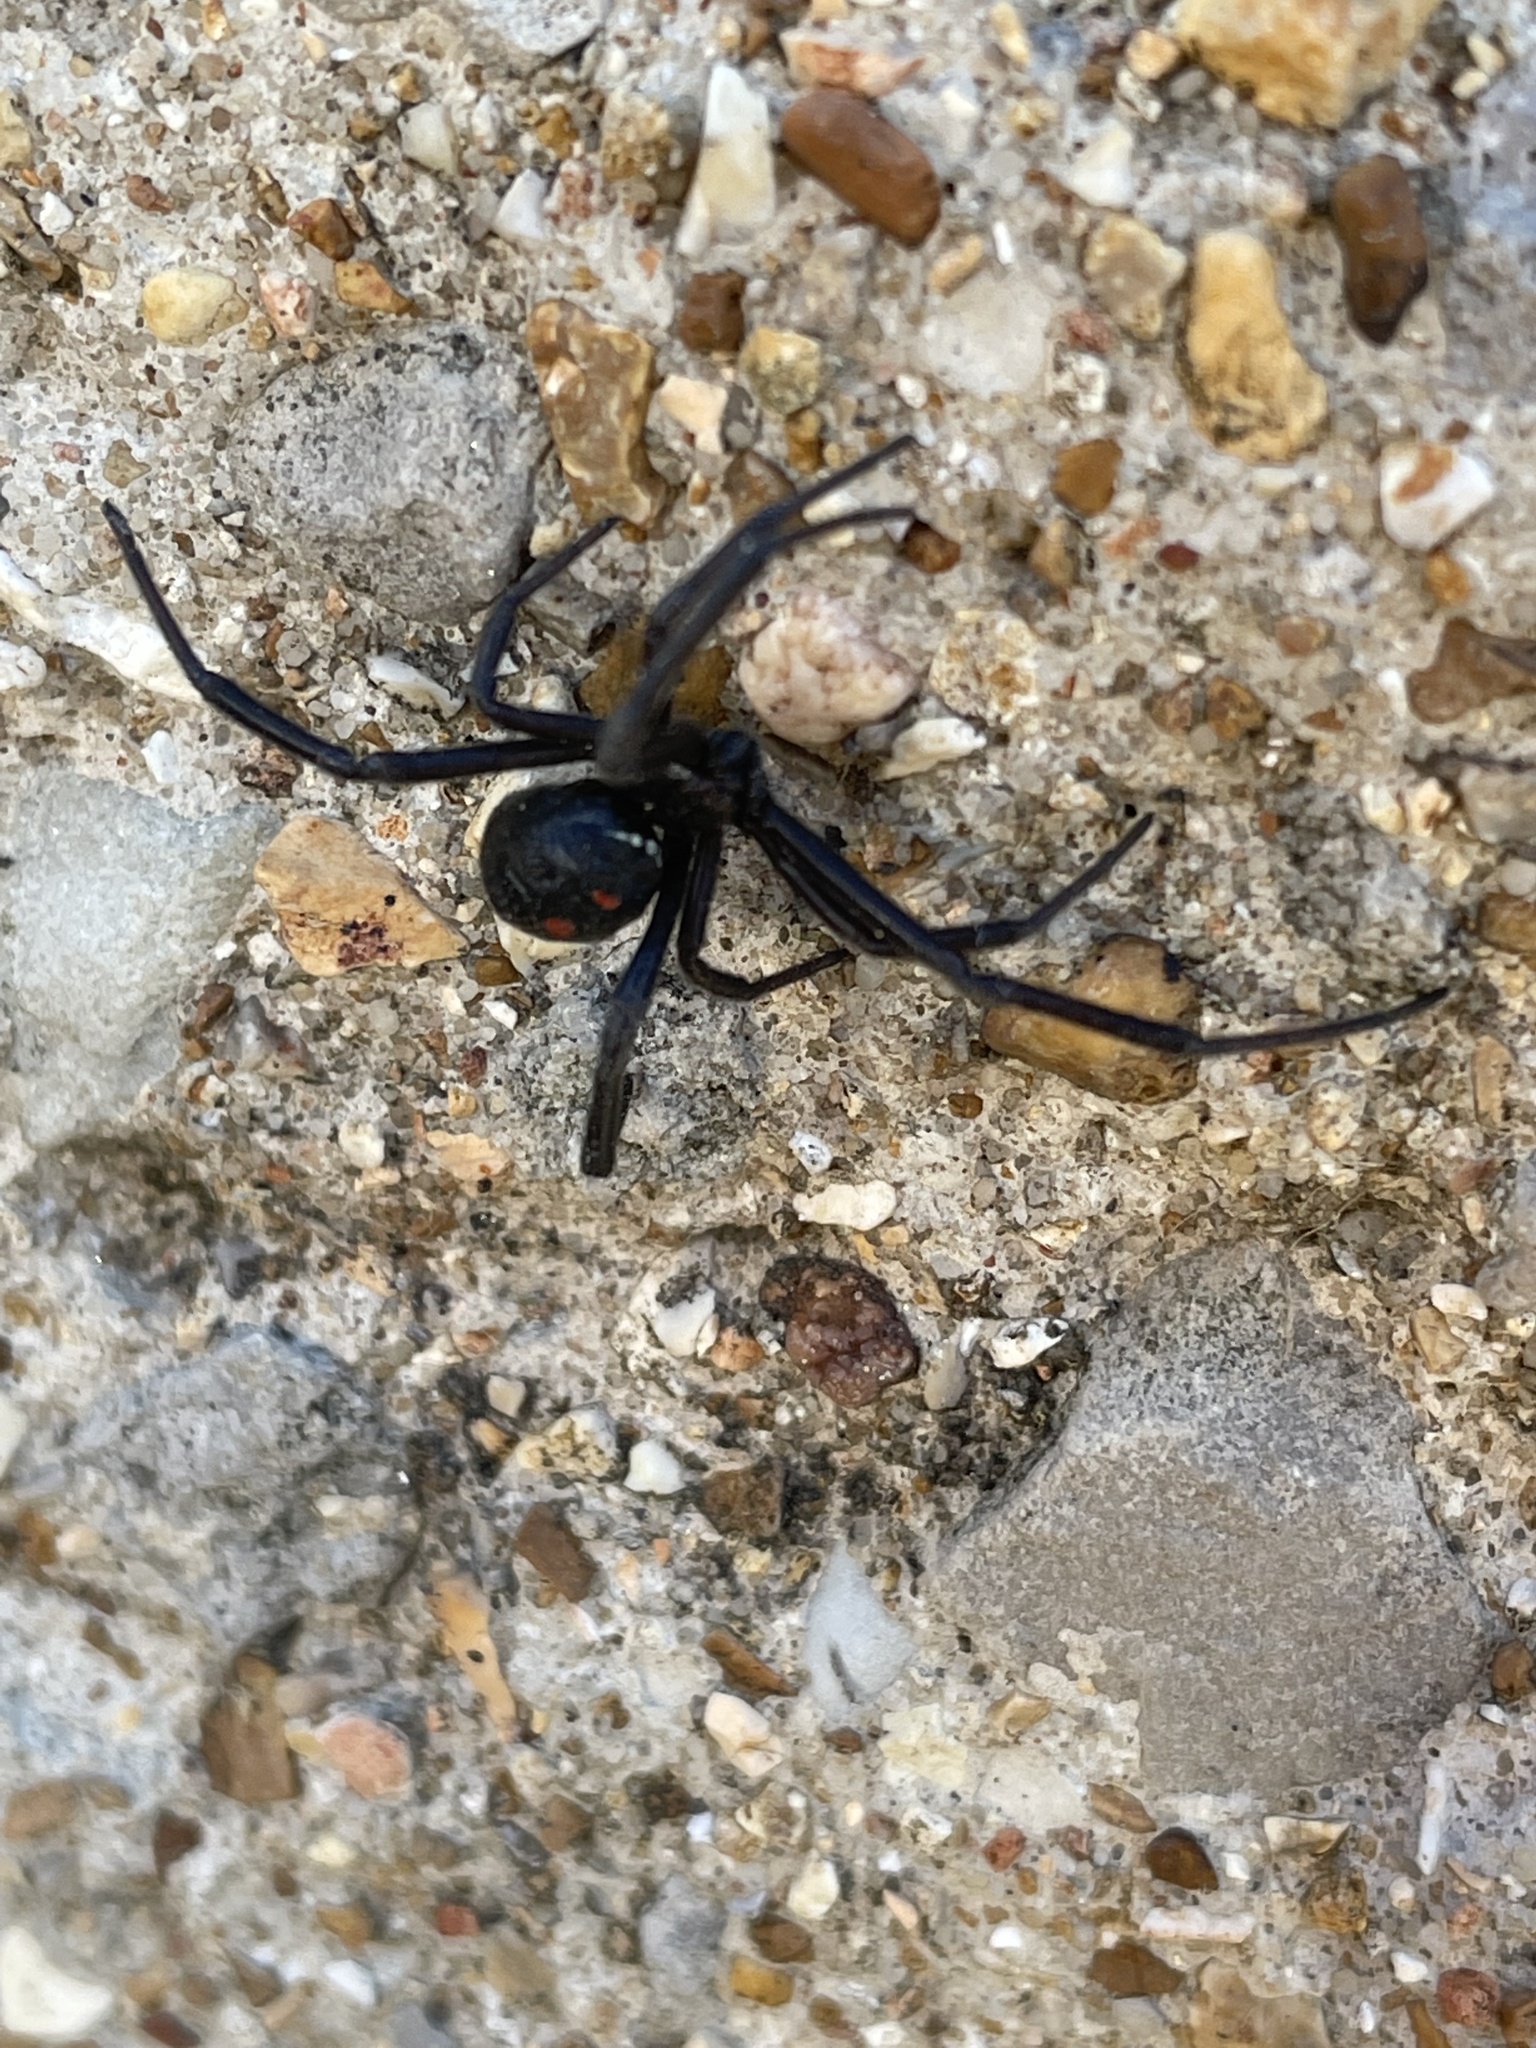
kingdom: Animalia
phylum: Arthropoda
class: Arachnida
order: Araneae
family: Theridiidae
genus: Latrodectus
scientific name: Latrodectus variolus
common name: Northern black widow
